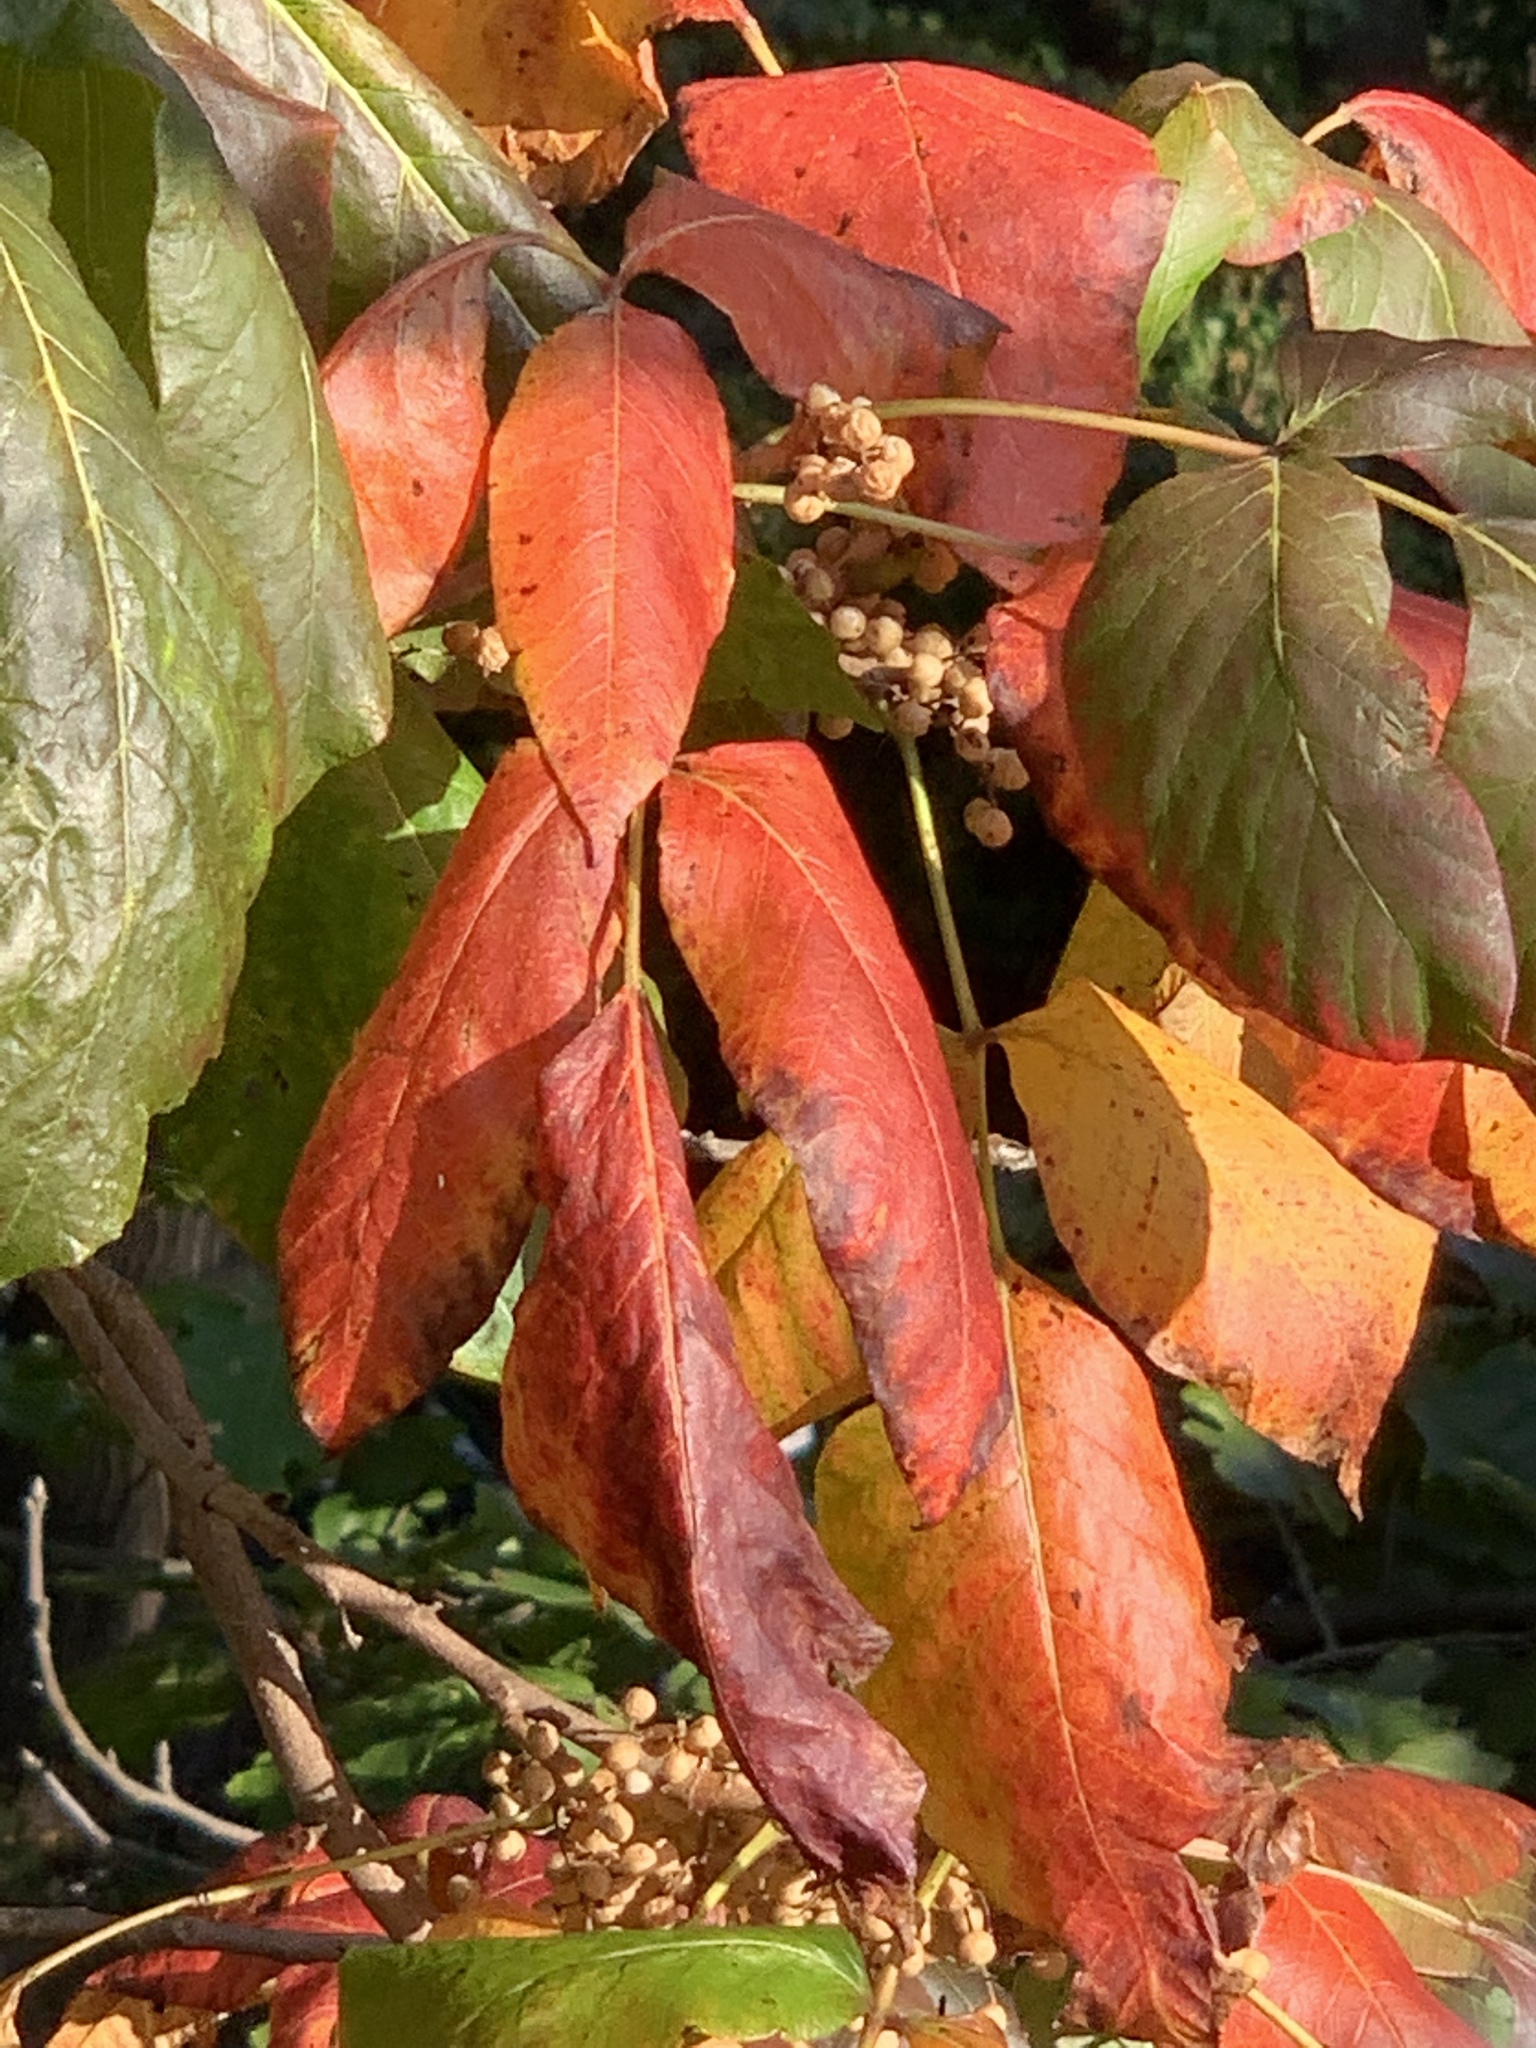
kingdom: Plantae
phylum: Tracheophyta
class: Magnoliopsida
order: Sapindales
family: Anacardiaceae
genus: Toxicodendron
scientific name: Toxicodendron radicans
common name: Poison ivy
